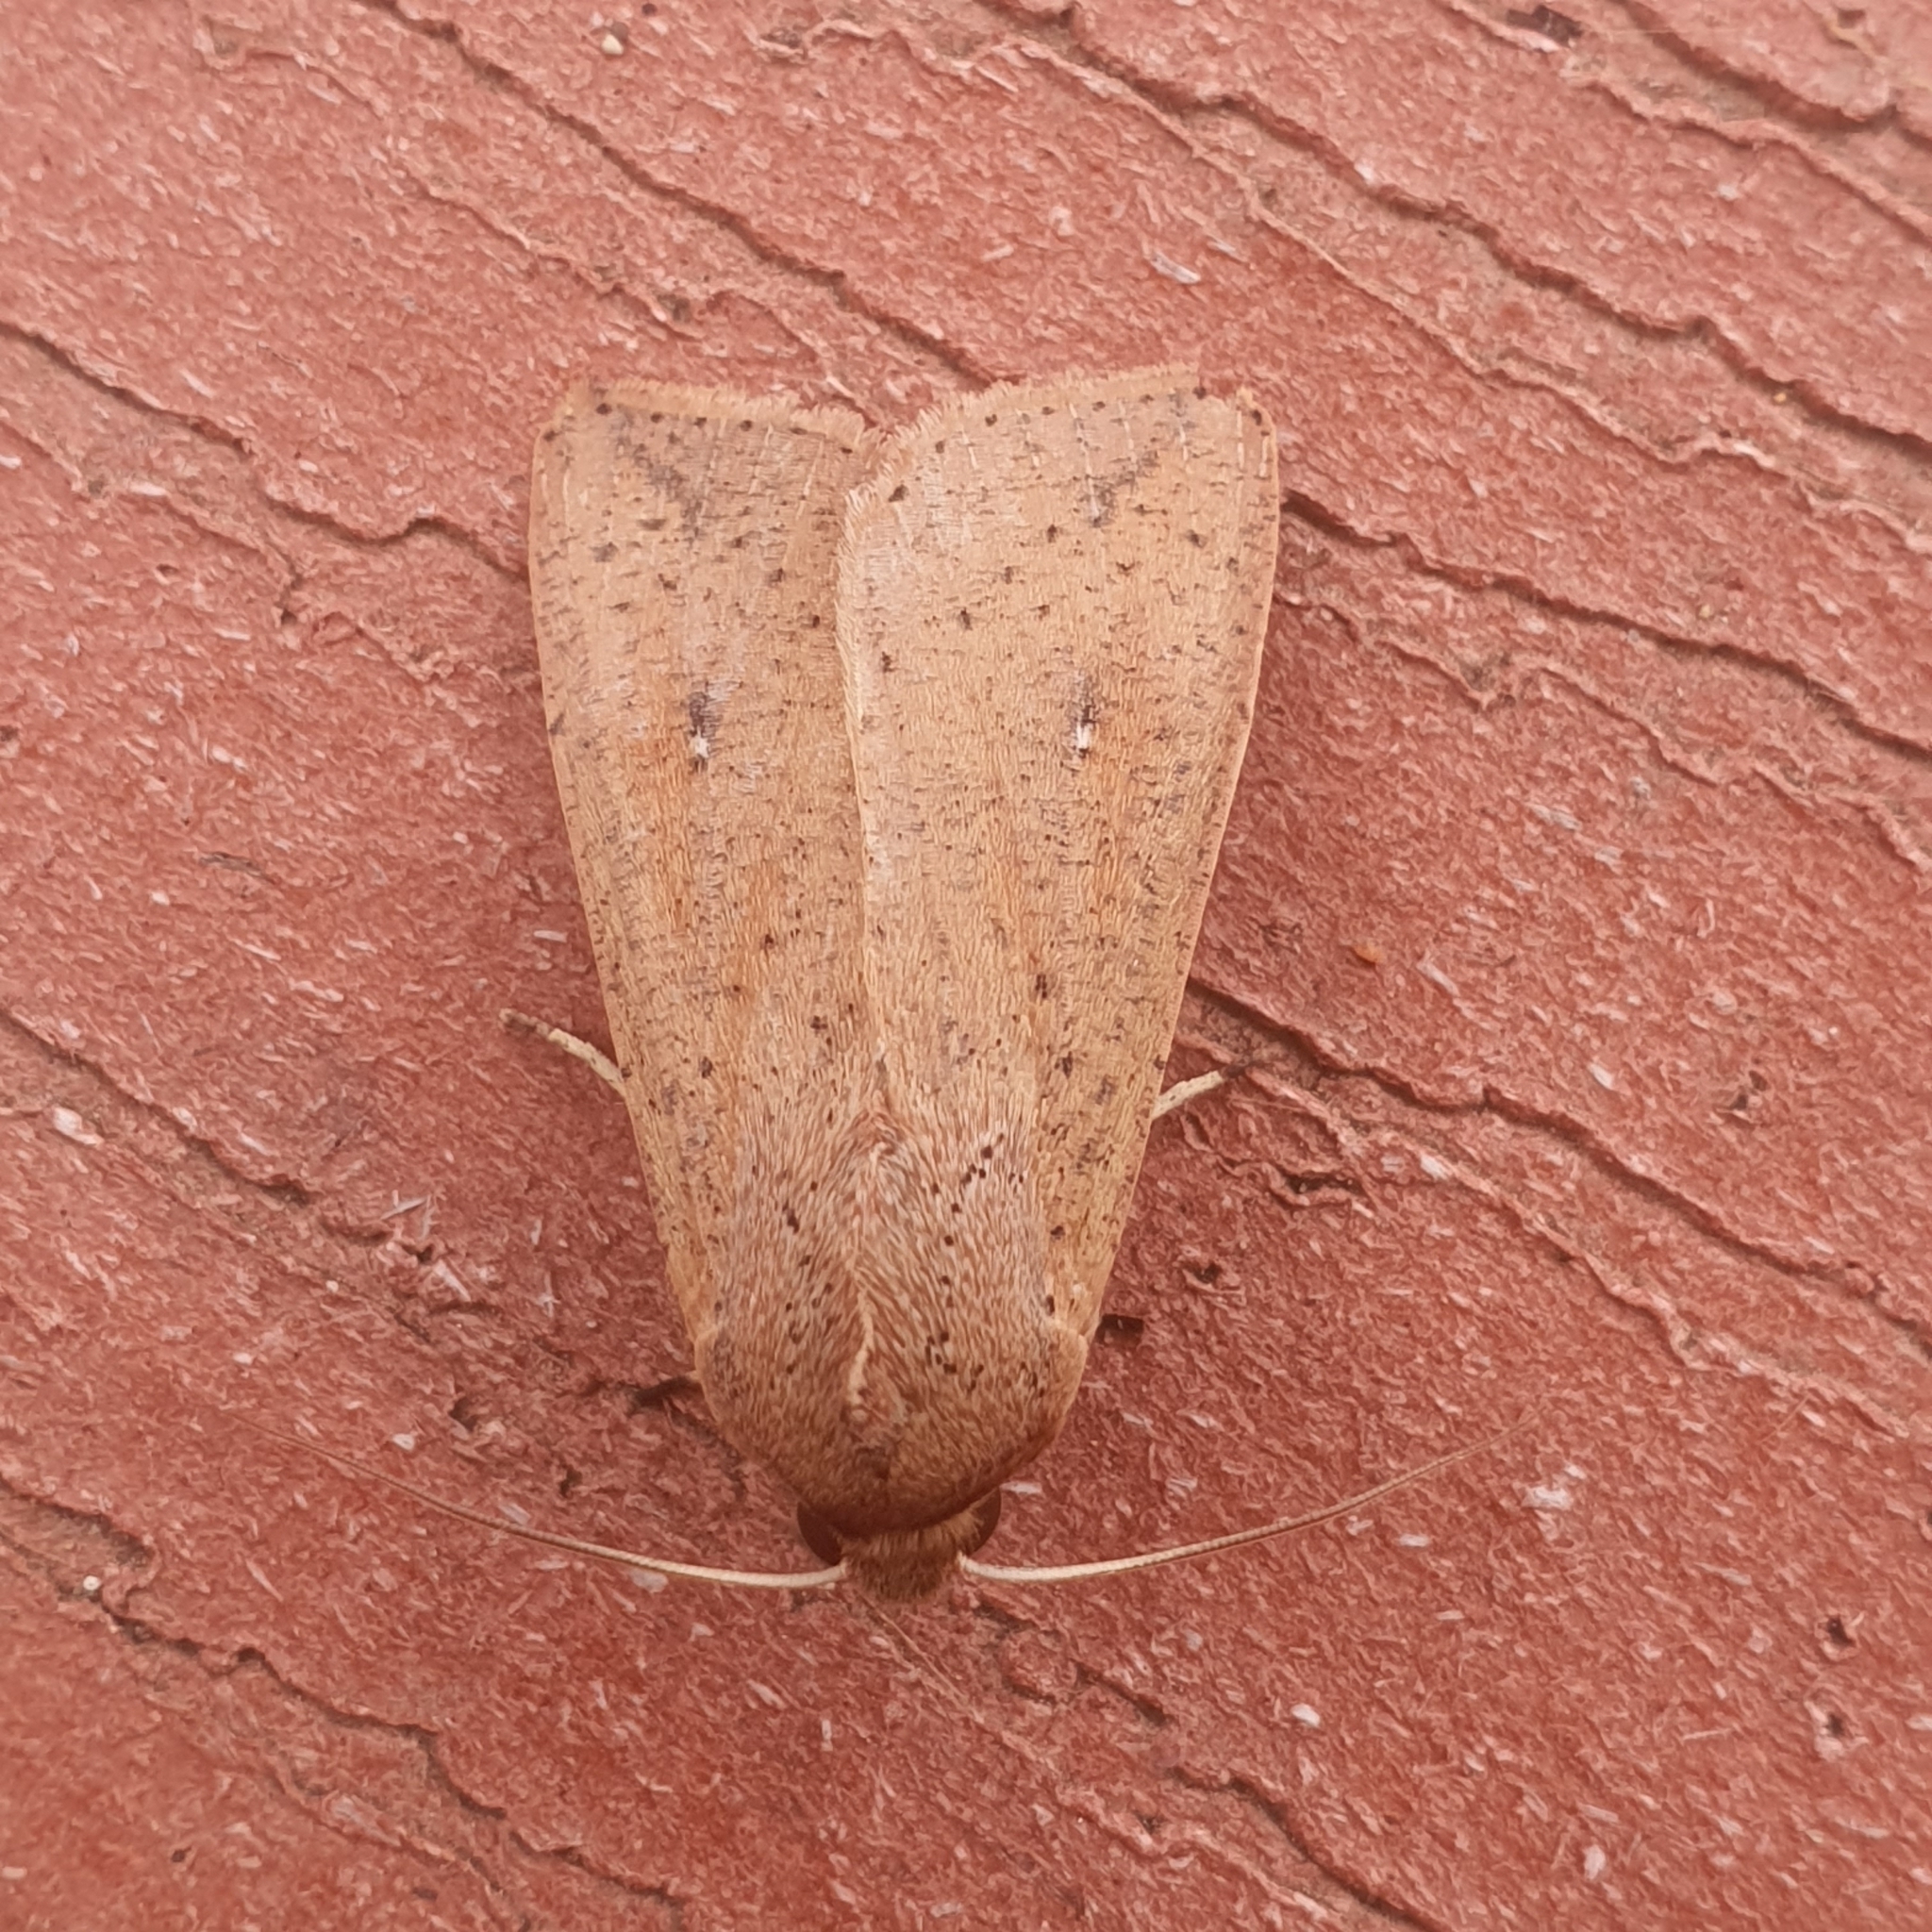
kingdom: Animalia
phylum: Arthropoda
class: Insecta
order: Lepidoptera
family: Noctuidae
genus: Mythimna
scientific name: Mythimna convecta
